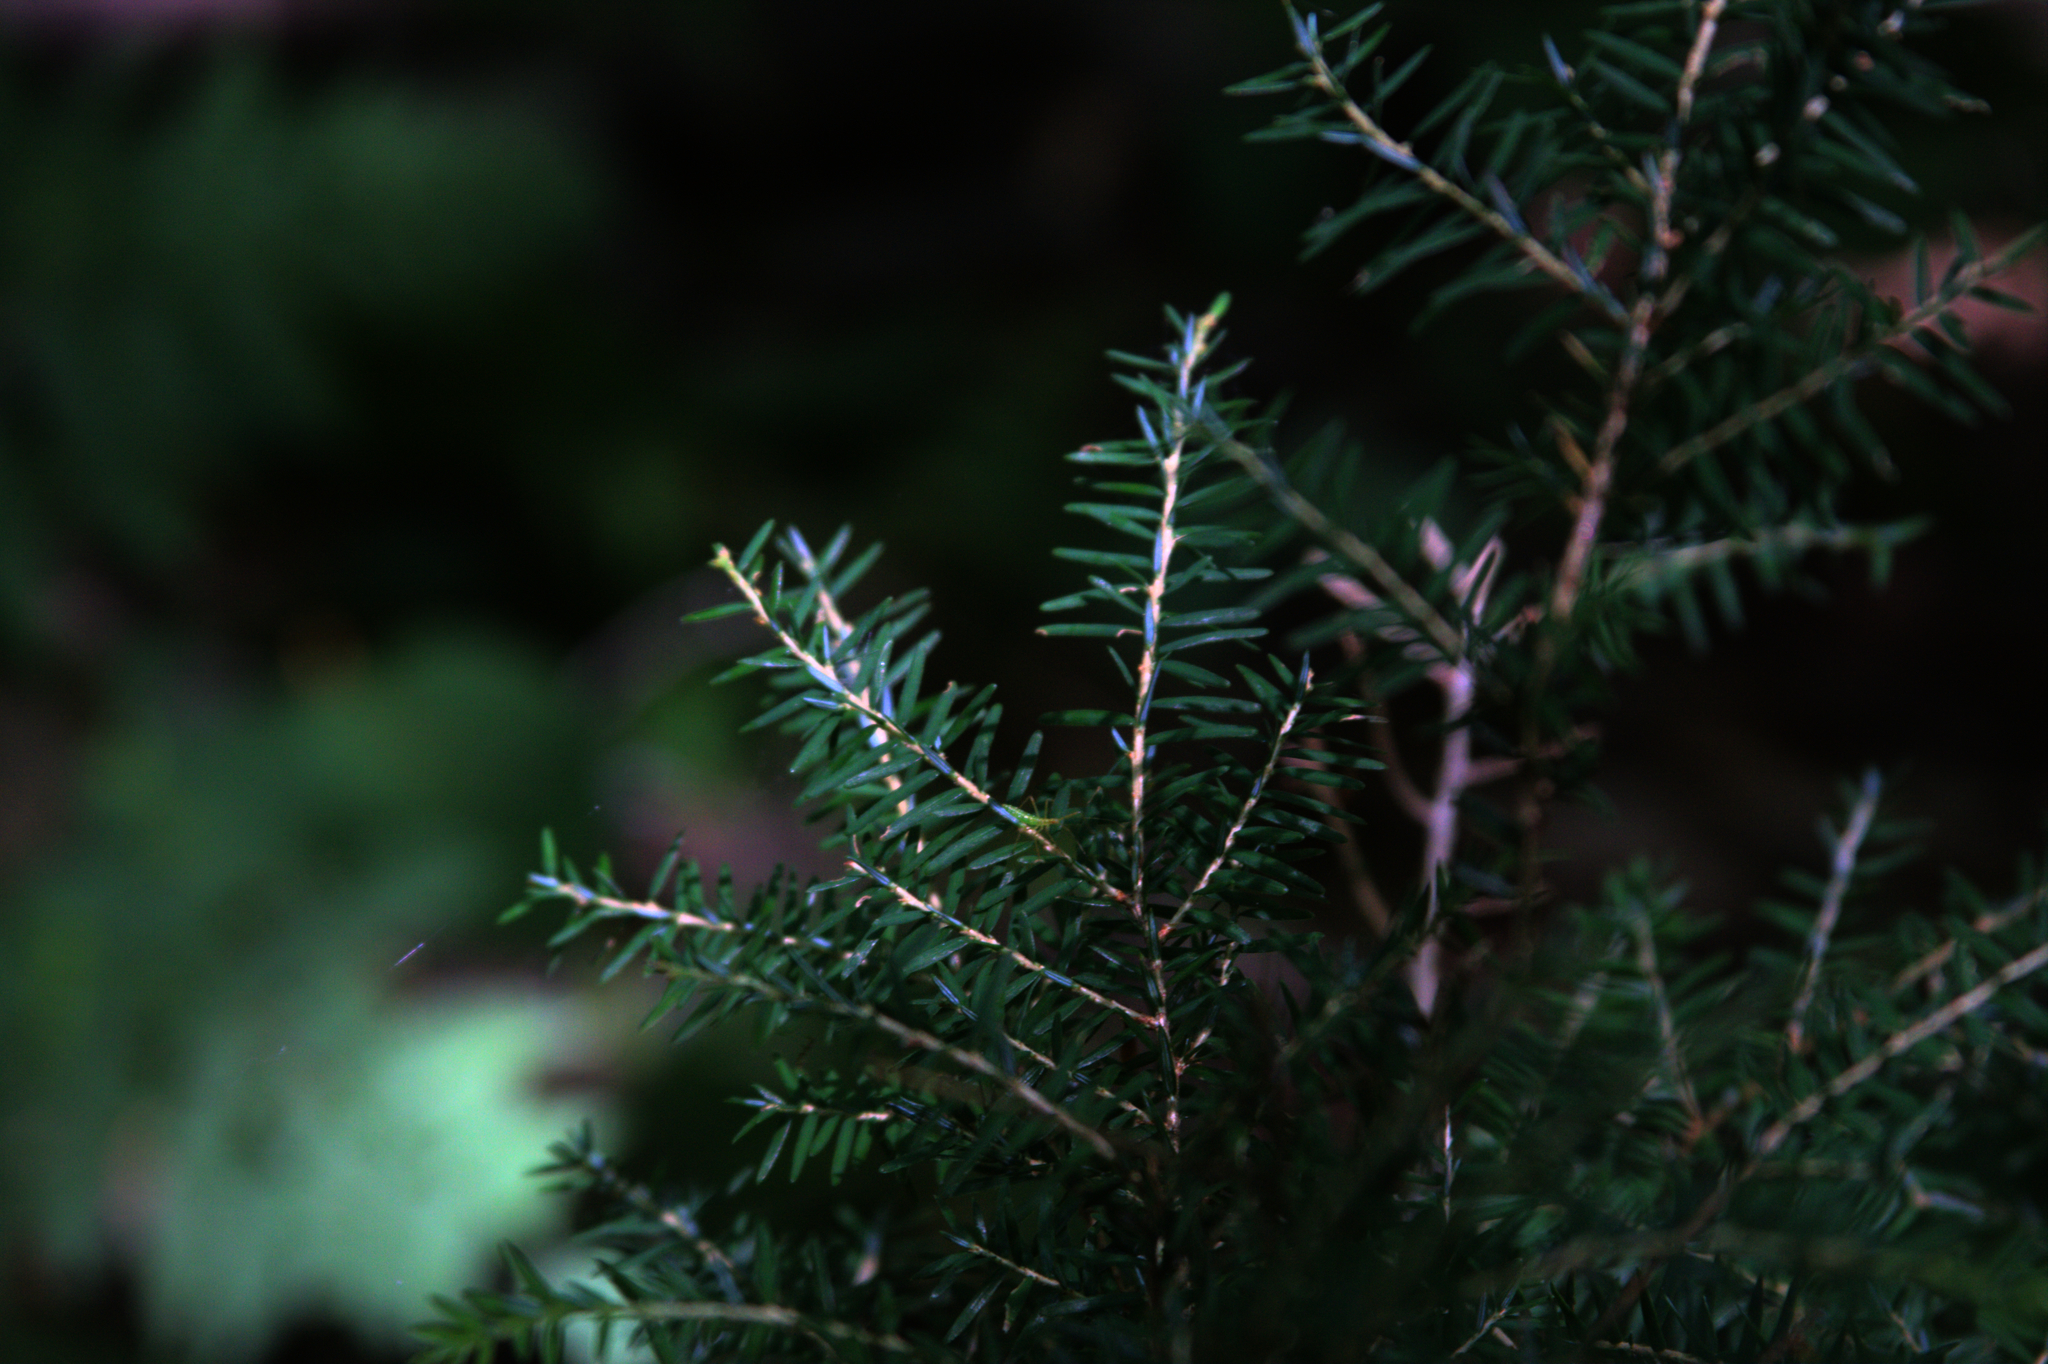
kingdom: Plantae
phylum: Tracheophyta
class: Pinopsida
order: Pinales
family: Pinaceae
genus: Tsuga
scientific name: Tsuga canadensis
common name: Eastern hemlock
